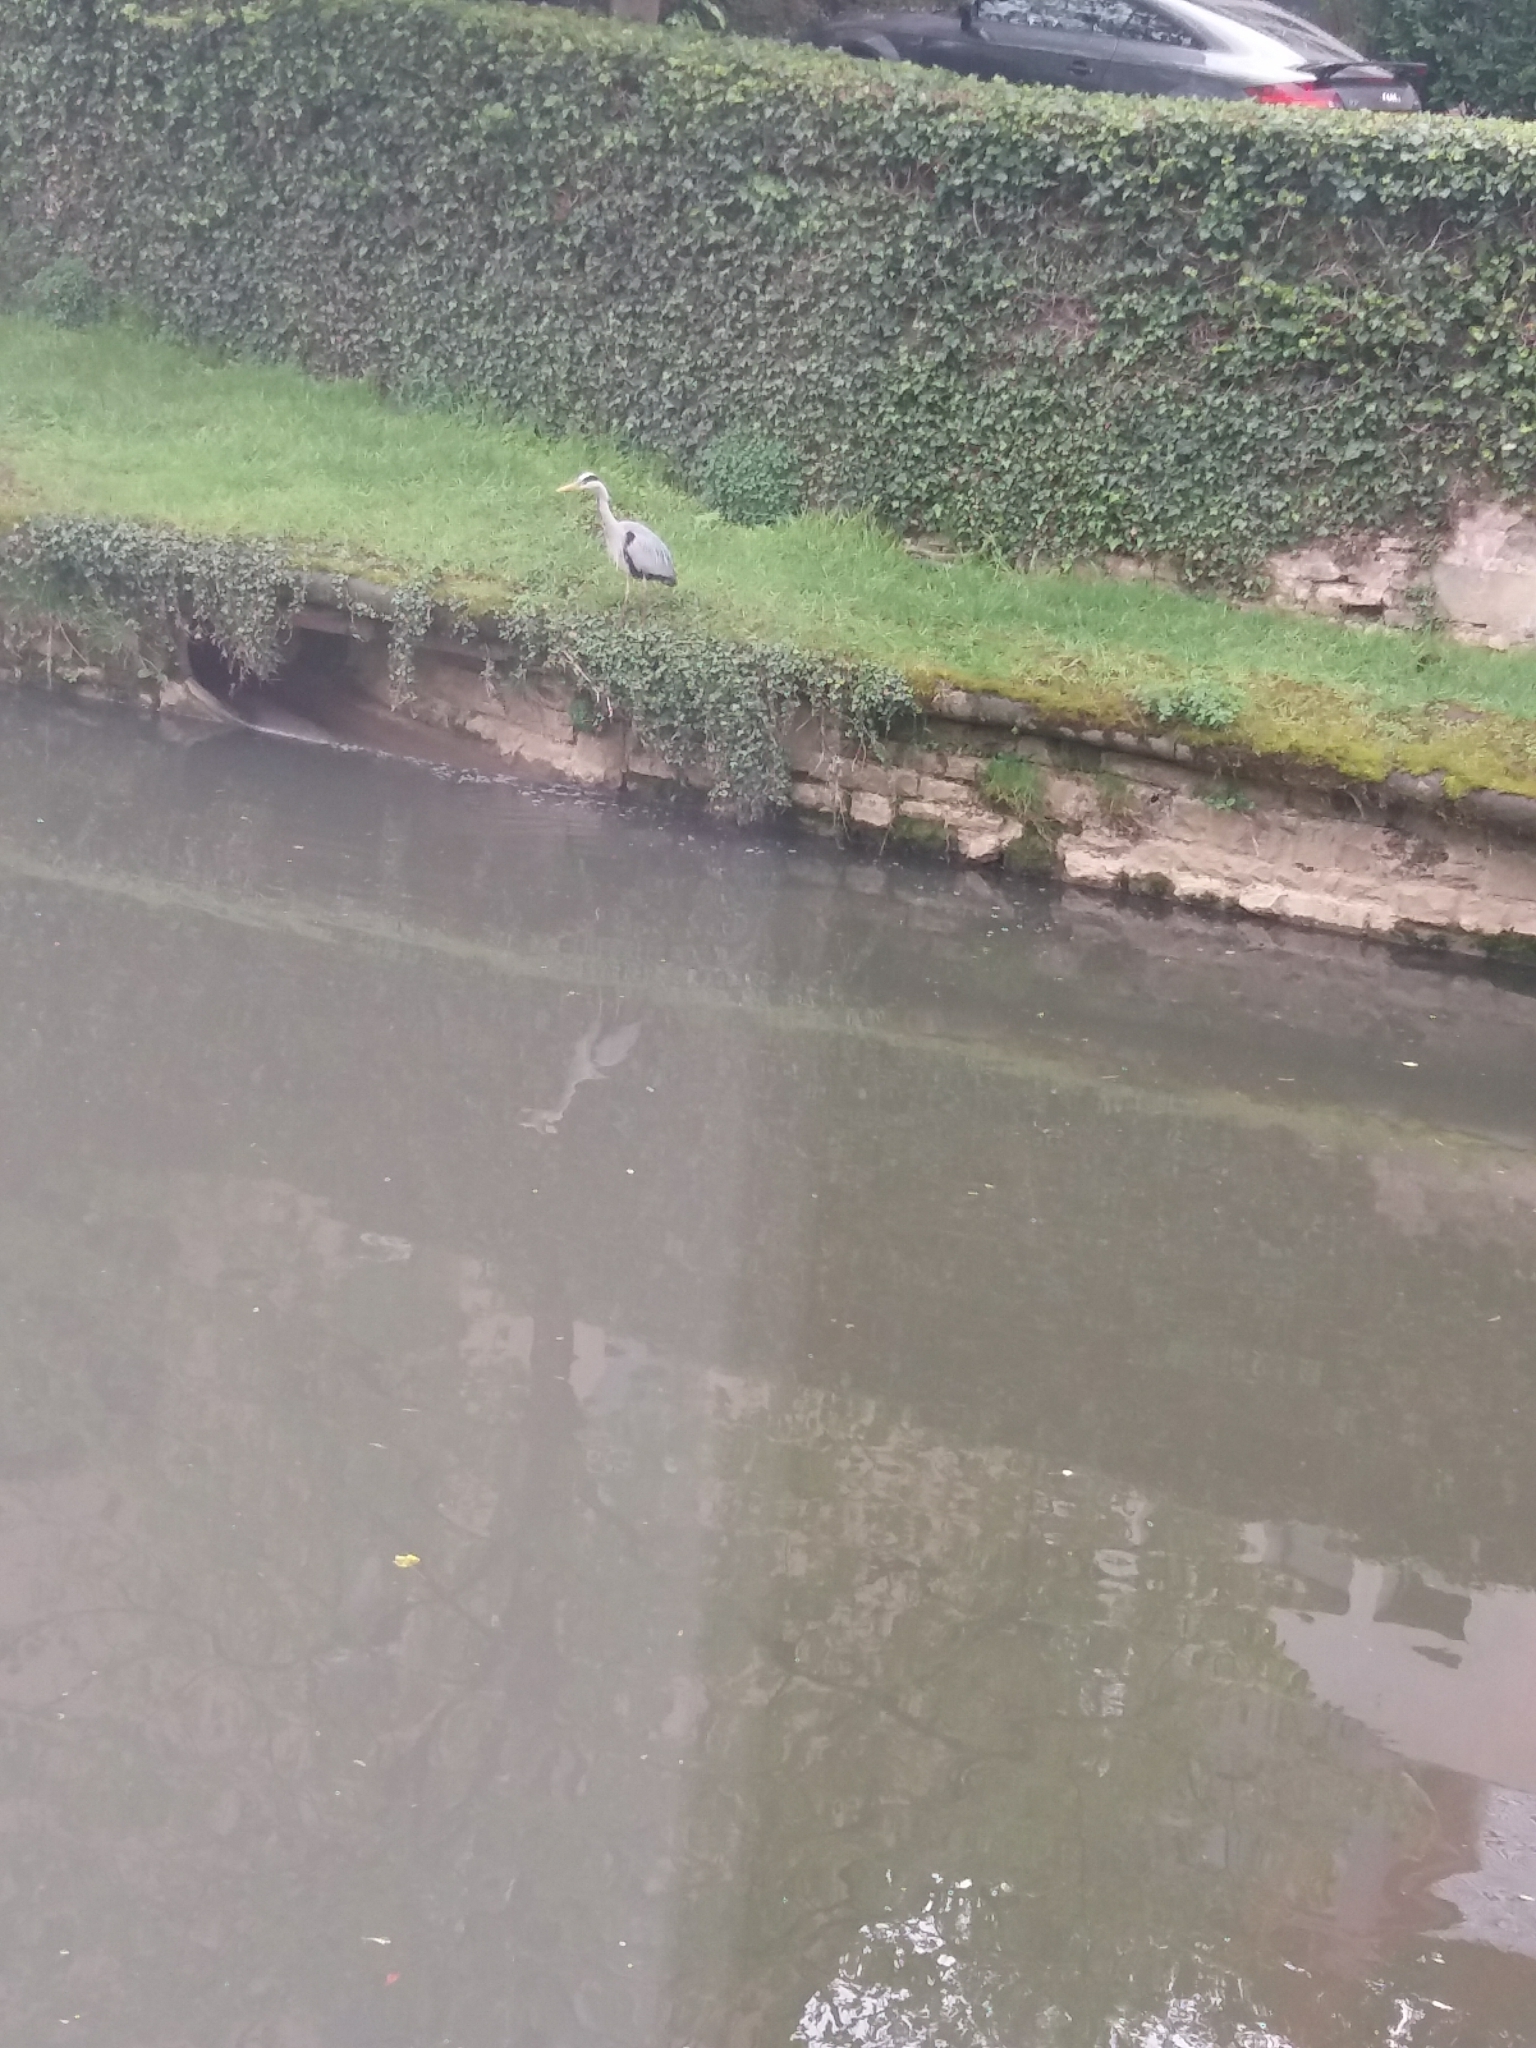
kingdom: Animalia
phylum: Chordata
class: Aves
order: Pelecaniformes
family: Ardeidae
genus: Ardea
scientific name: Ardea cinerea
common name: Grey heron
